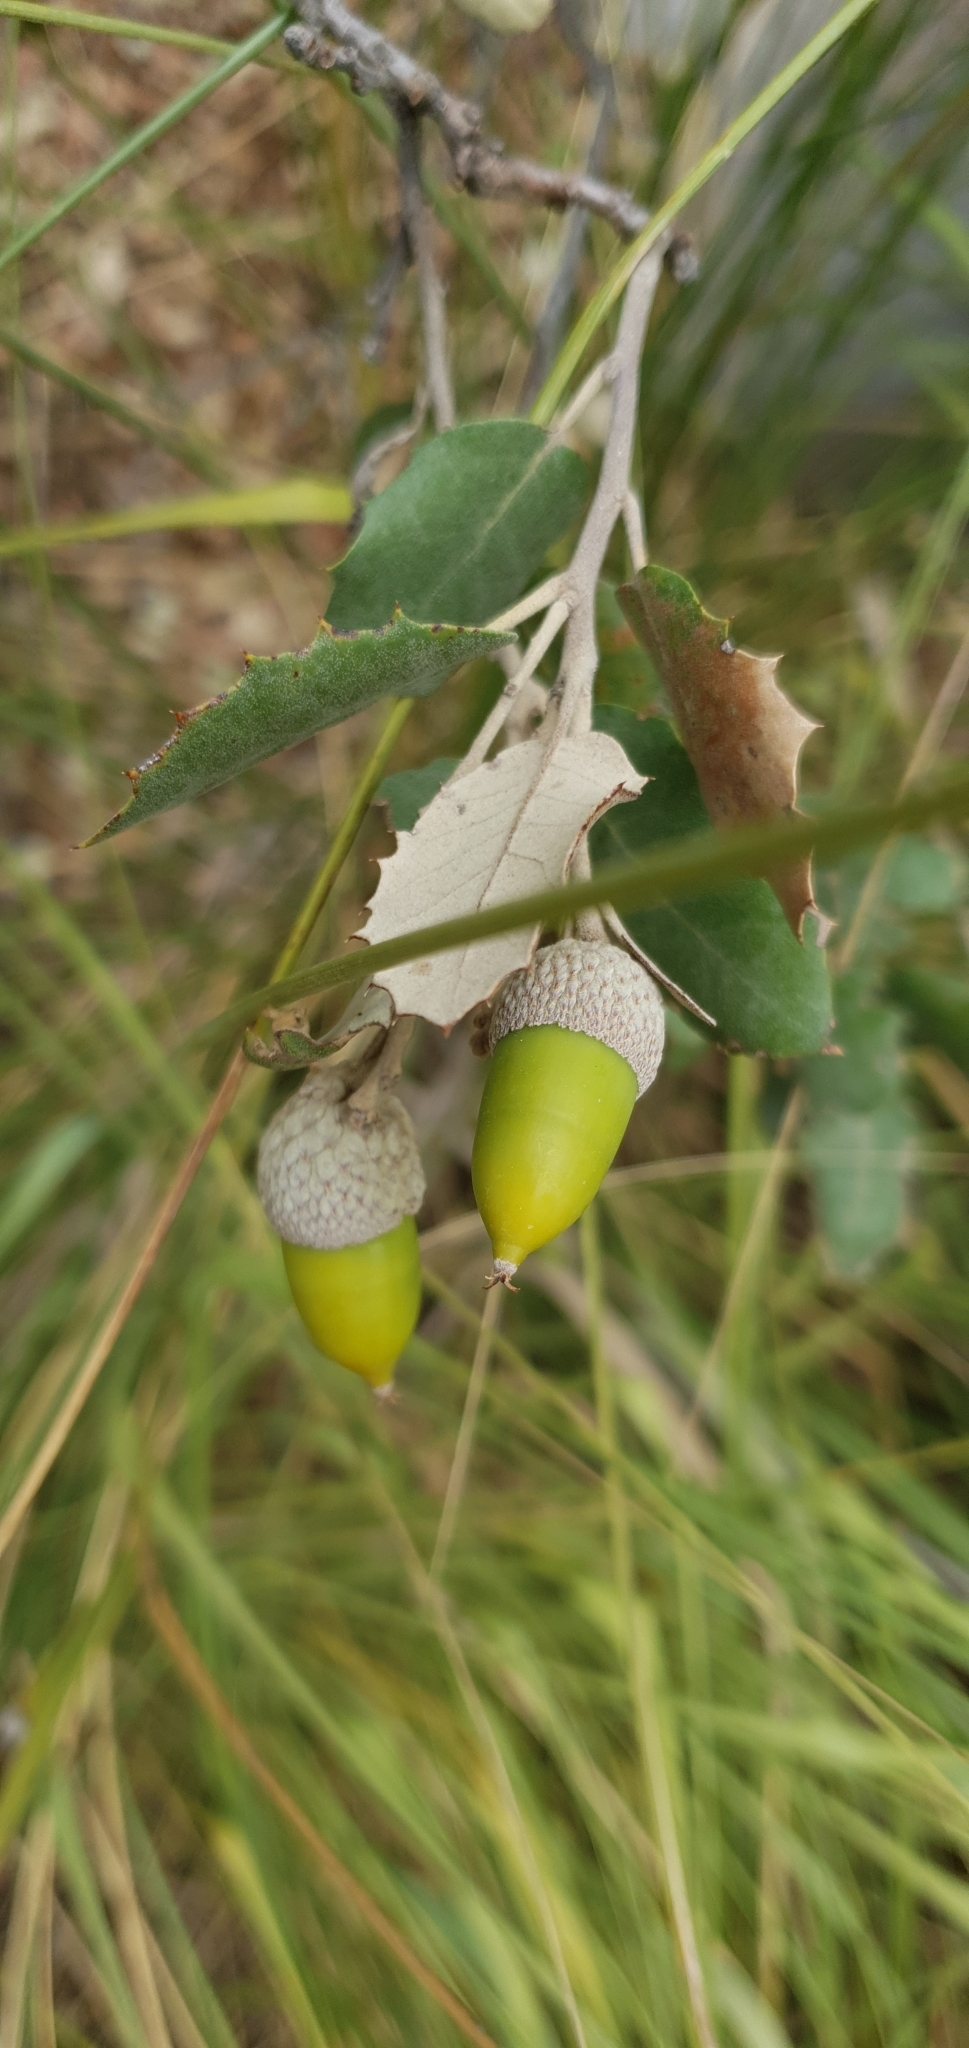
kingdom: Plantae
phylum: Tracheophyta
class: Magnoliopsida
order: Fagales
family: Fagaceae
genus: Quercus
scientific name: Quercus rotundifolia
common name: Holm oak
